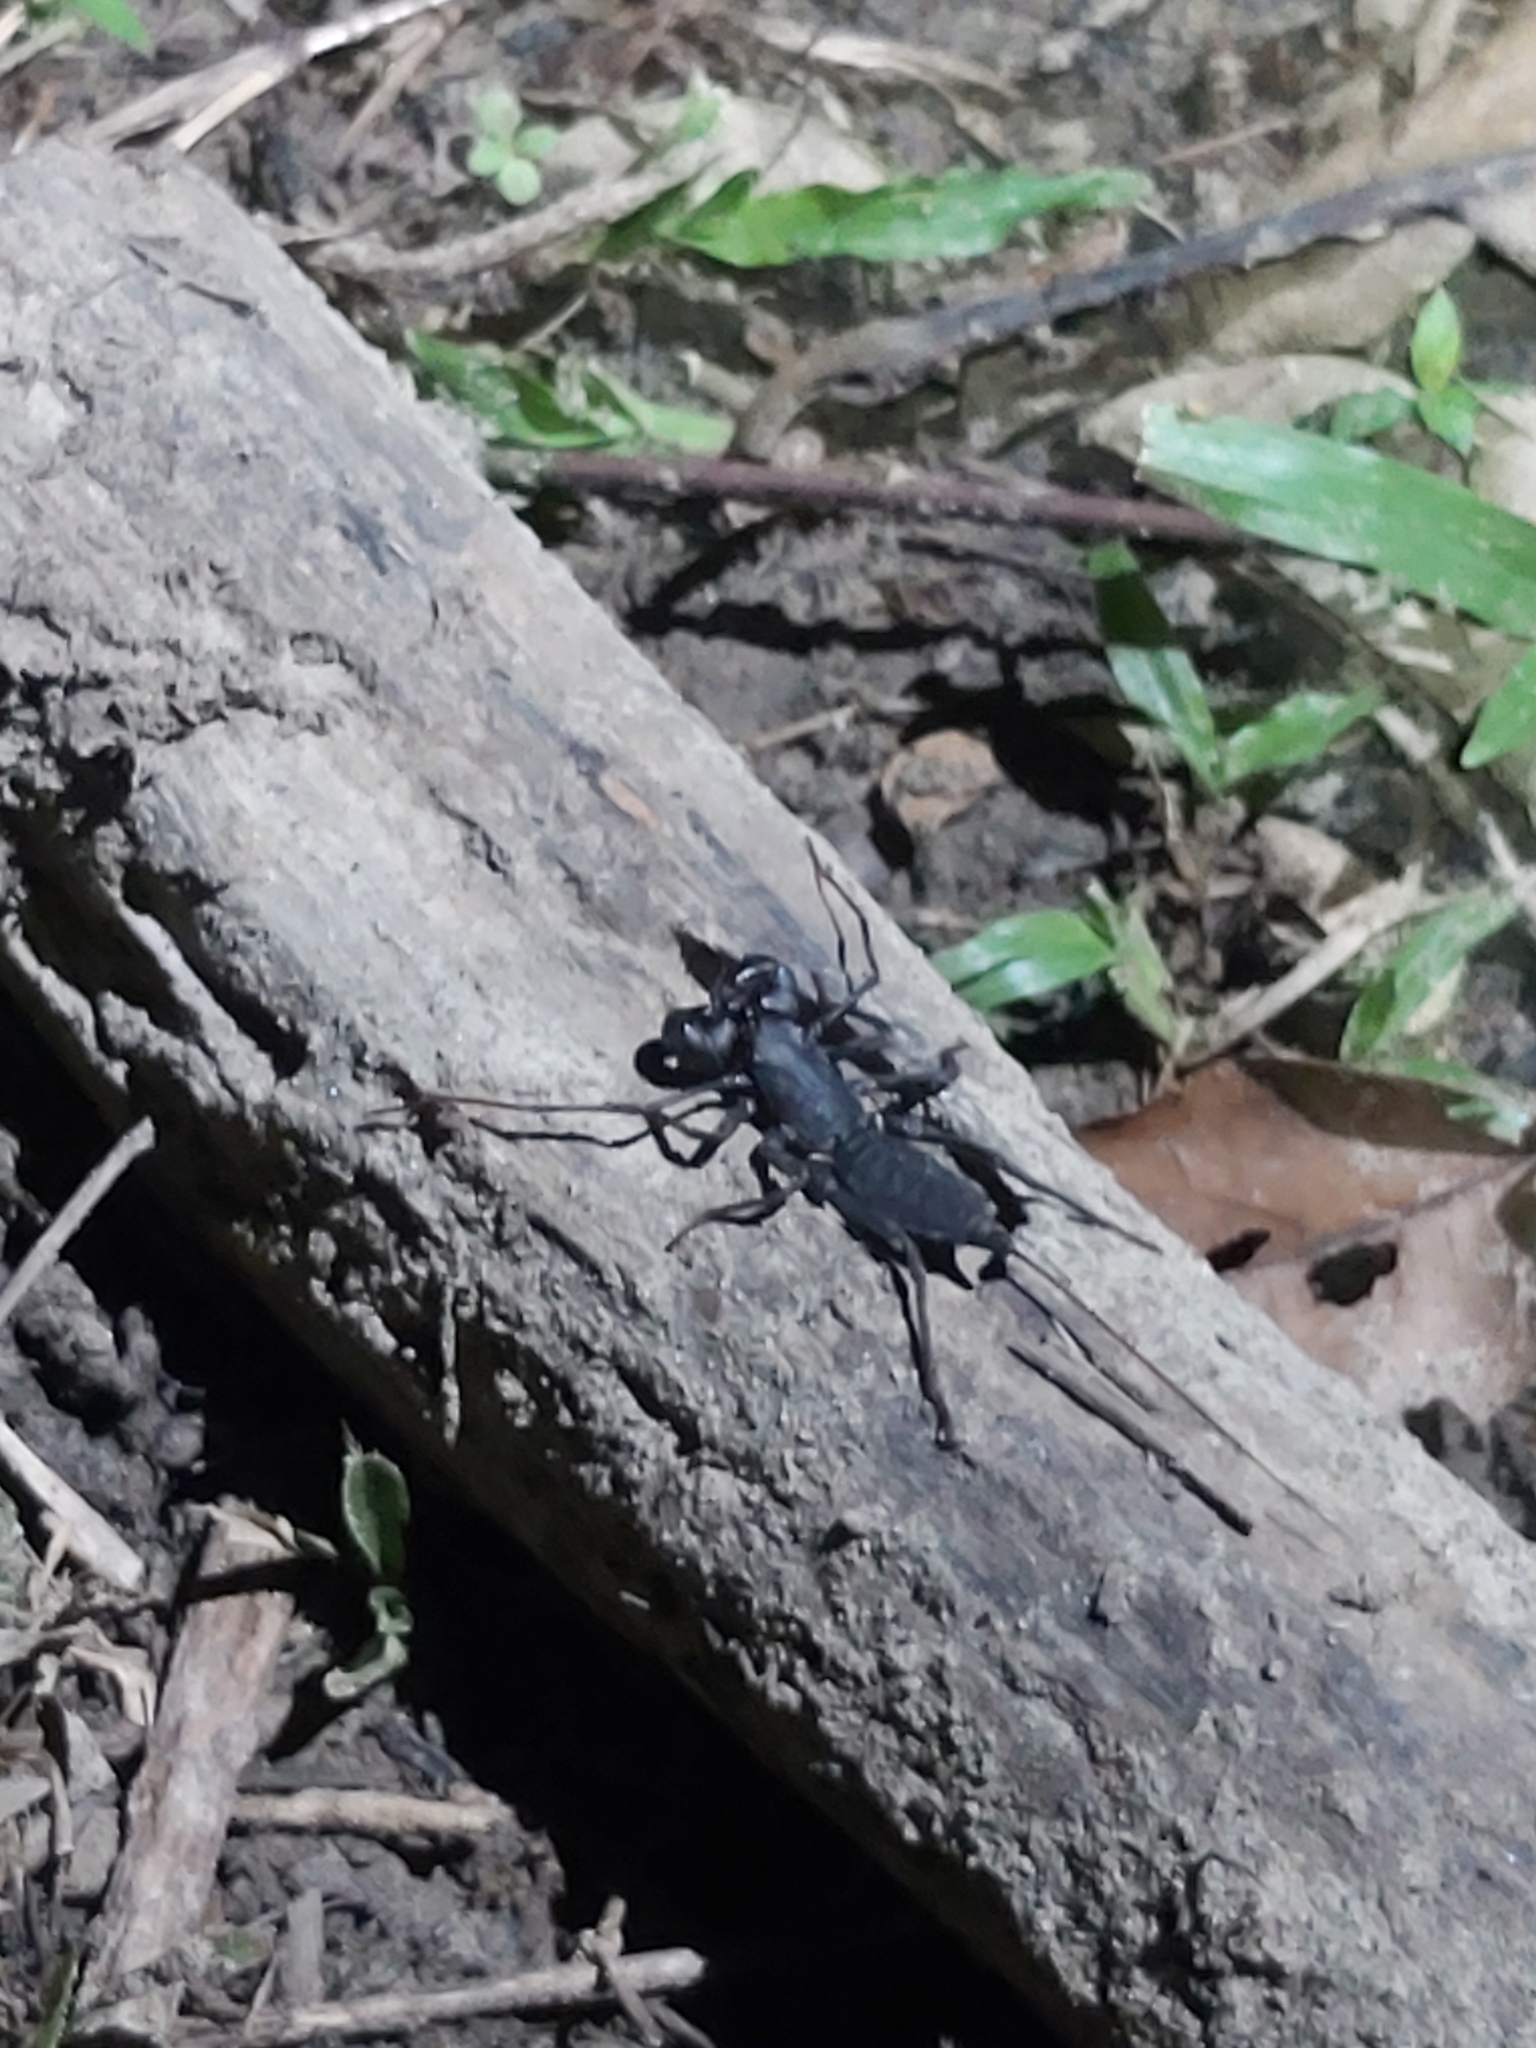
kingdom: Animalia
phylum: Arthropoda
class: Arachnida
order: Uropygi
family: Thelyphonidae
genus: Typopeltis
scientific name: Typopeltis crucifer
